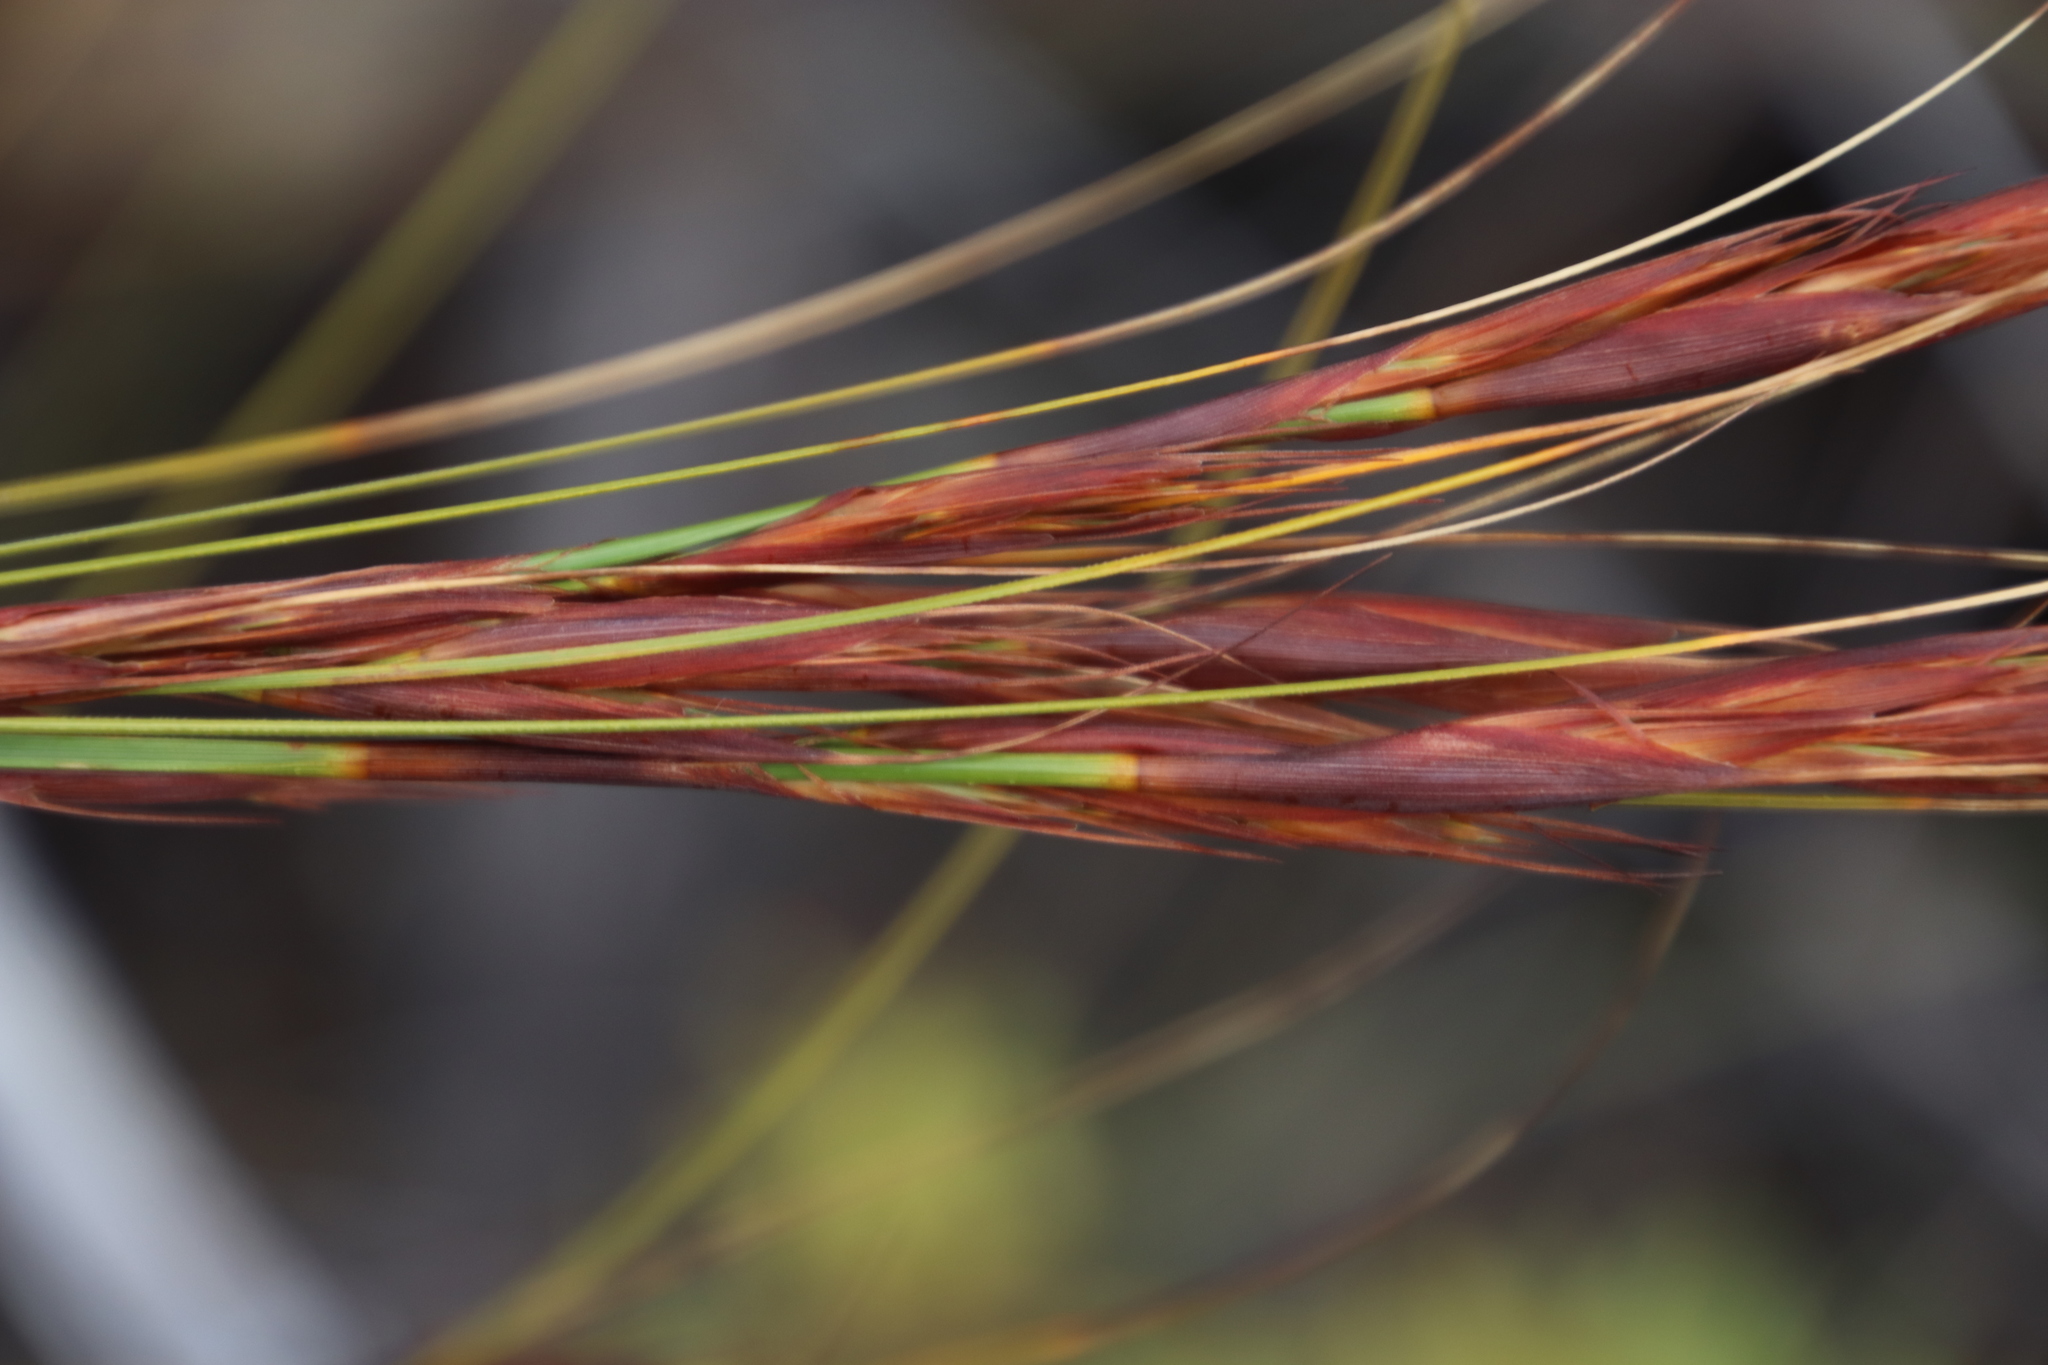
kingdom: Plantae
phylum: Tracheophyta
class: Liliopsida
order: Poales
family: Cyperaceae
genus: Tetraria
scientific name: Tetraria ustulata
